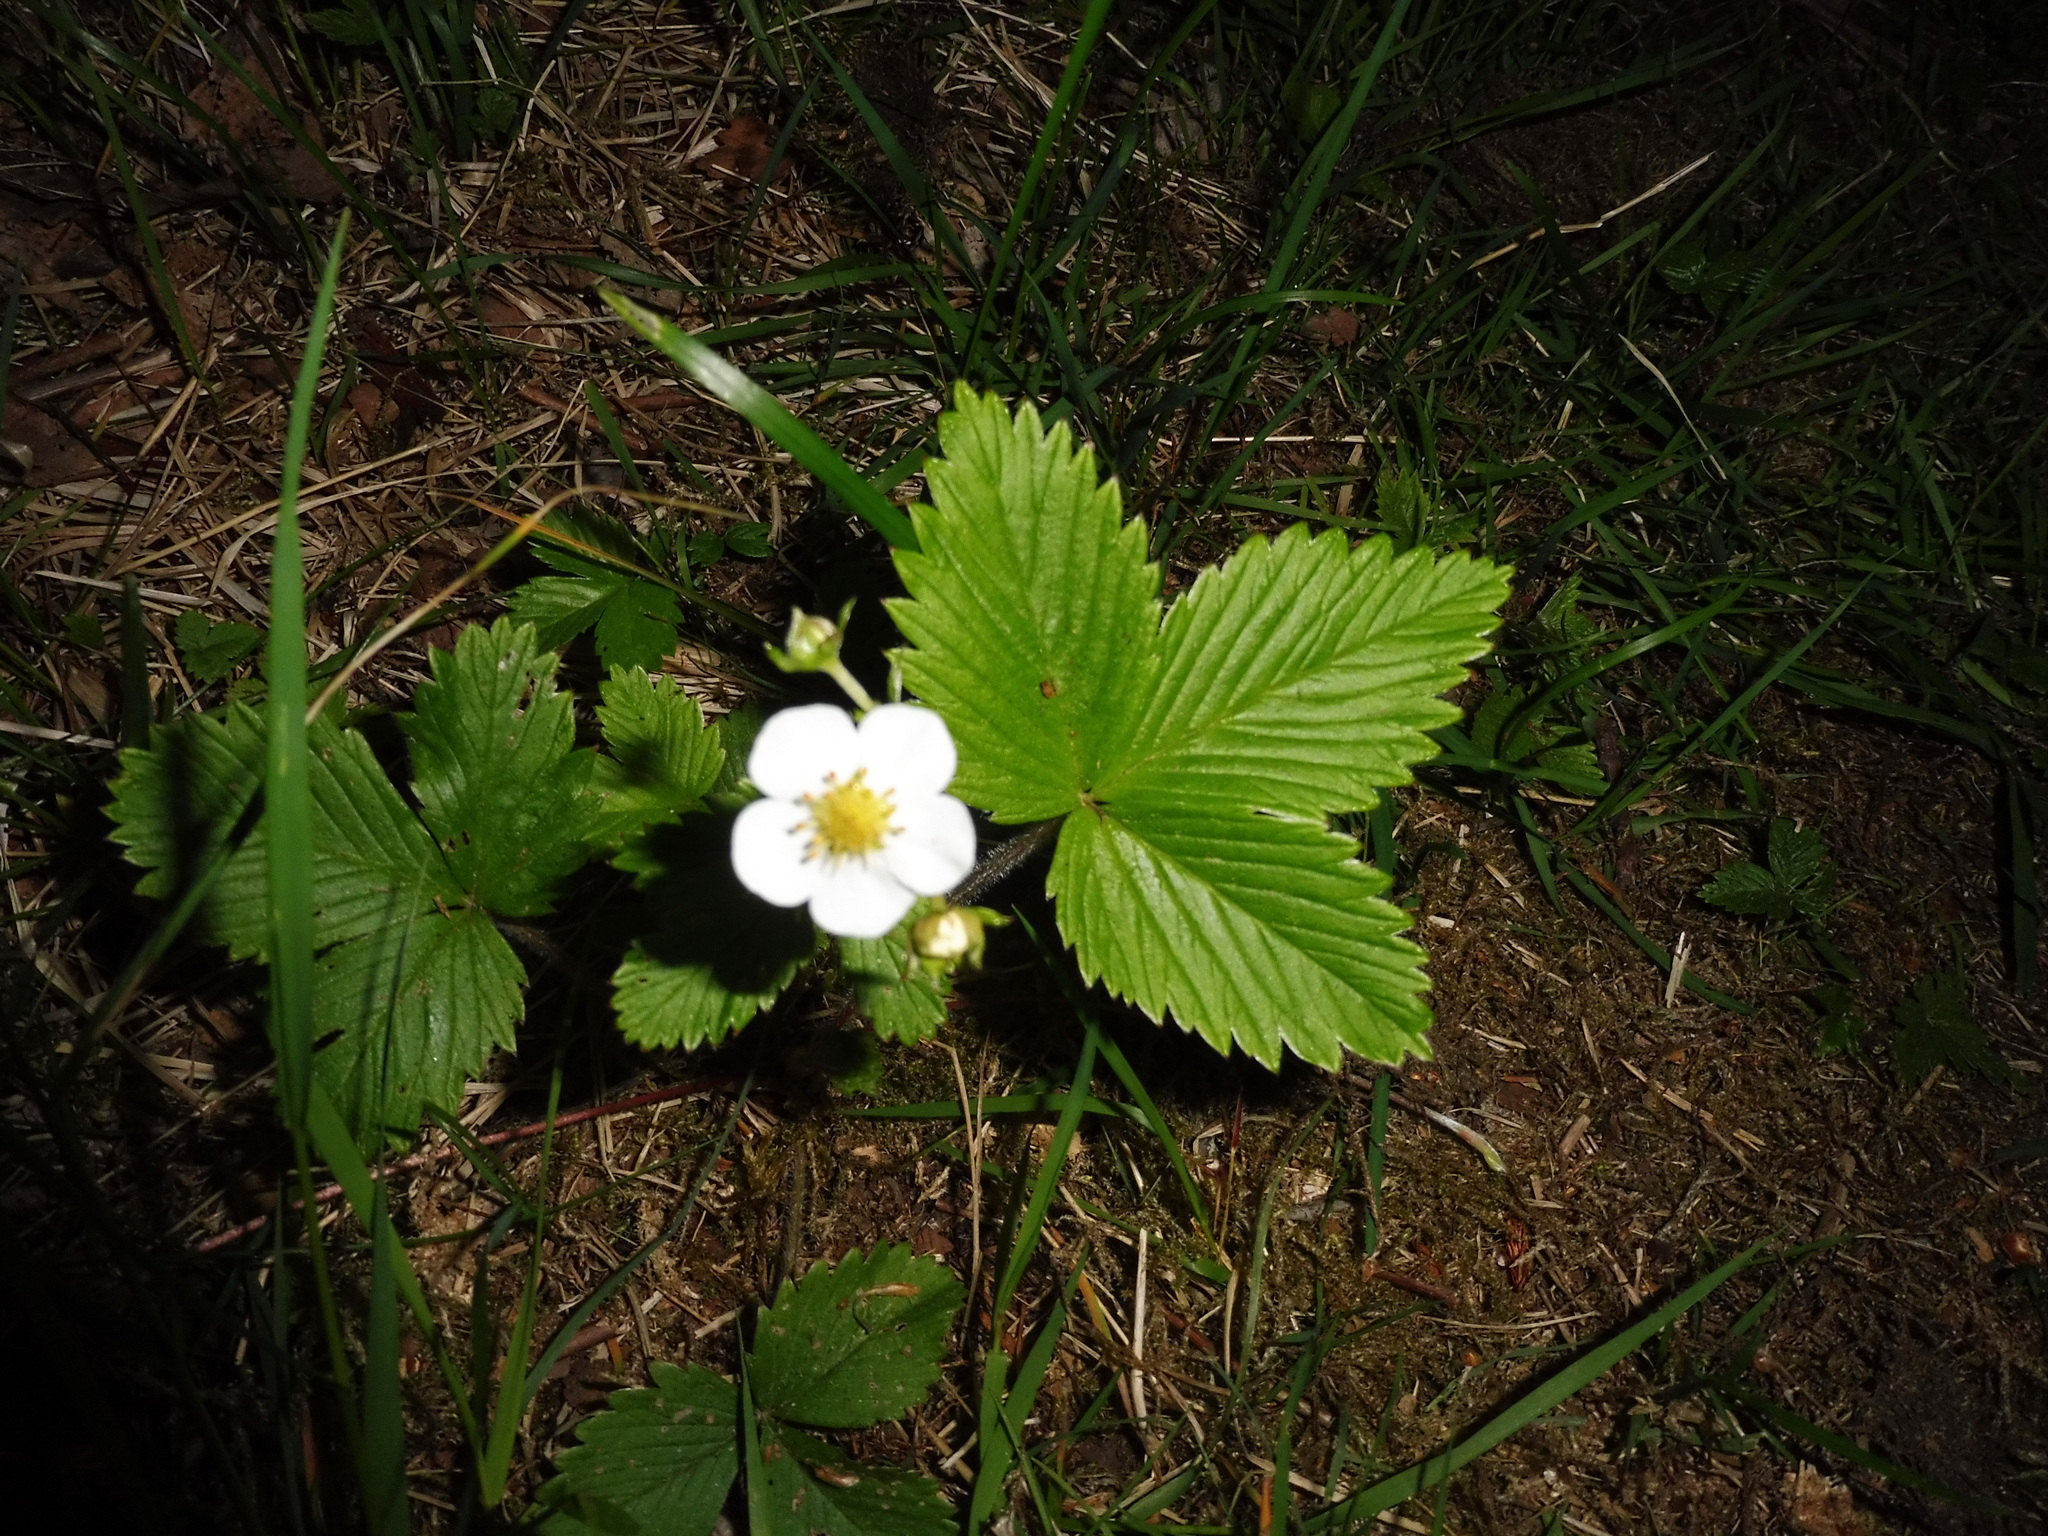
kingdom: Plantae
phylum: Tracheophyta
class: Magnoliopsida
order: Rosales
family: Rosaceae
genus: Fragaria
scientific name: Fragaria vesca
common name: Wild strawberry
